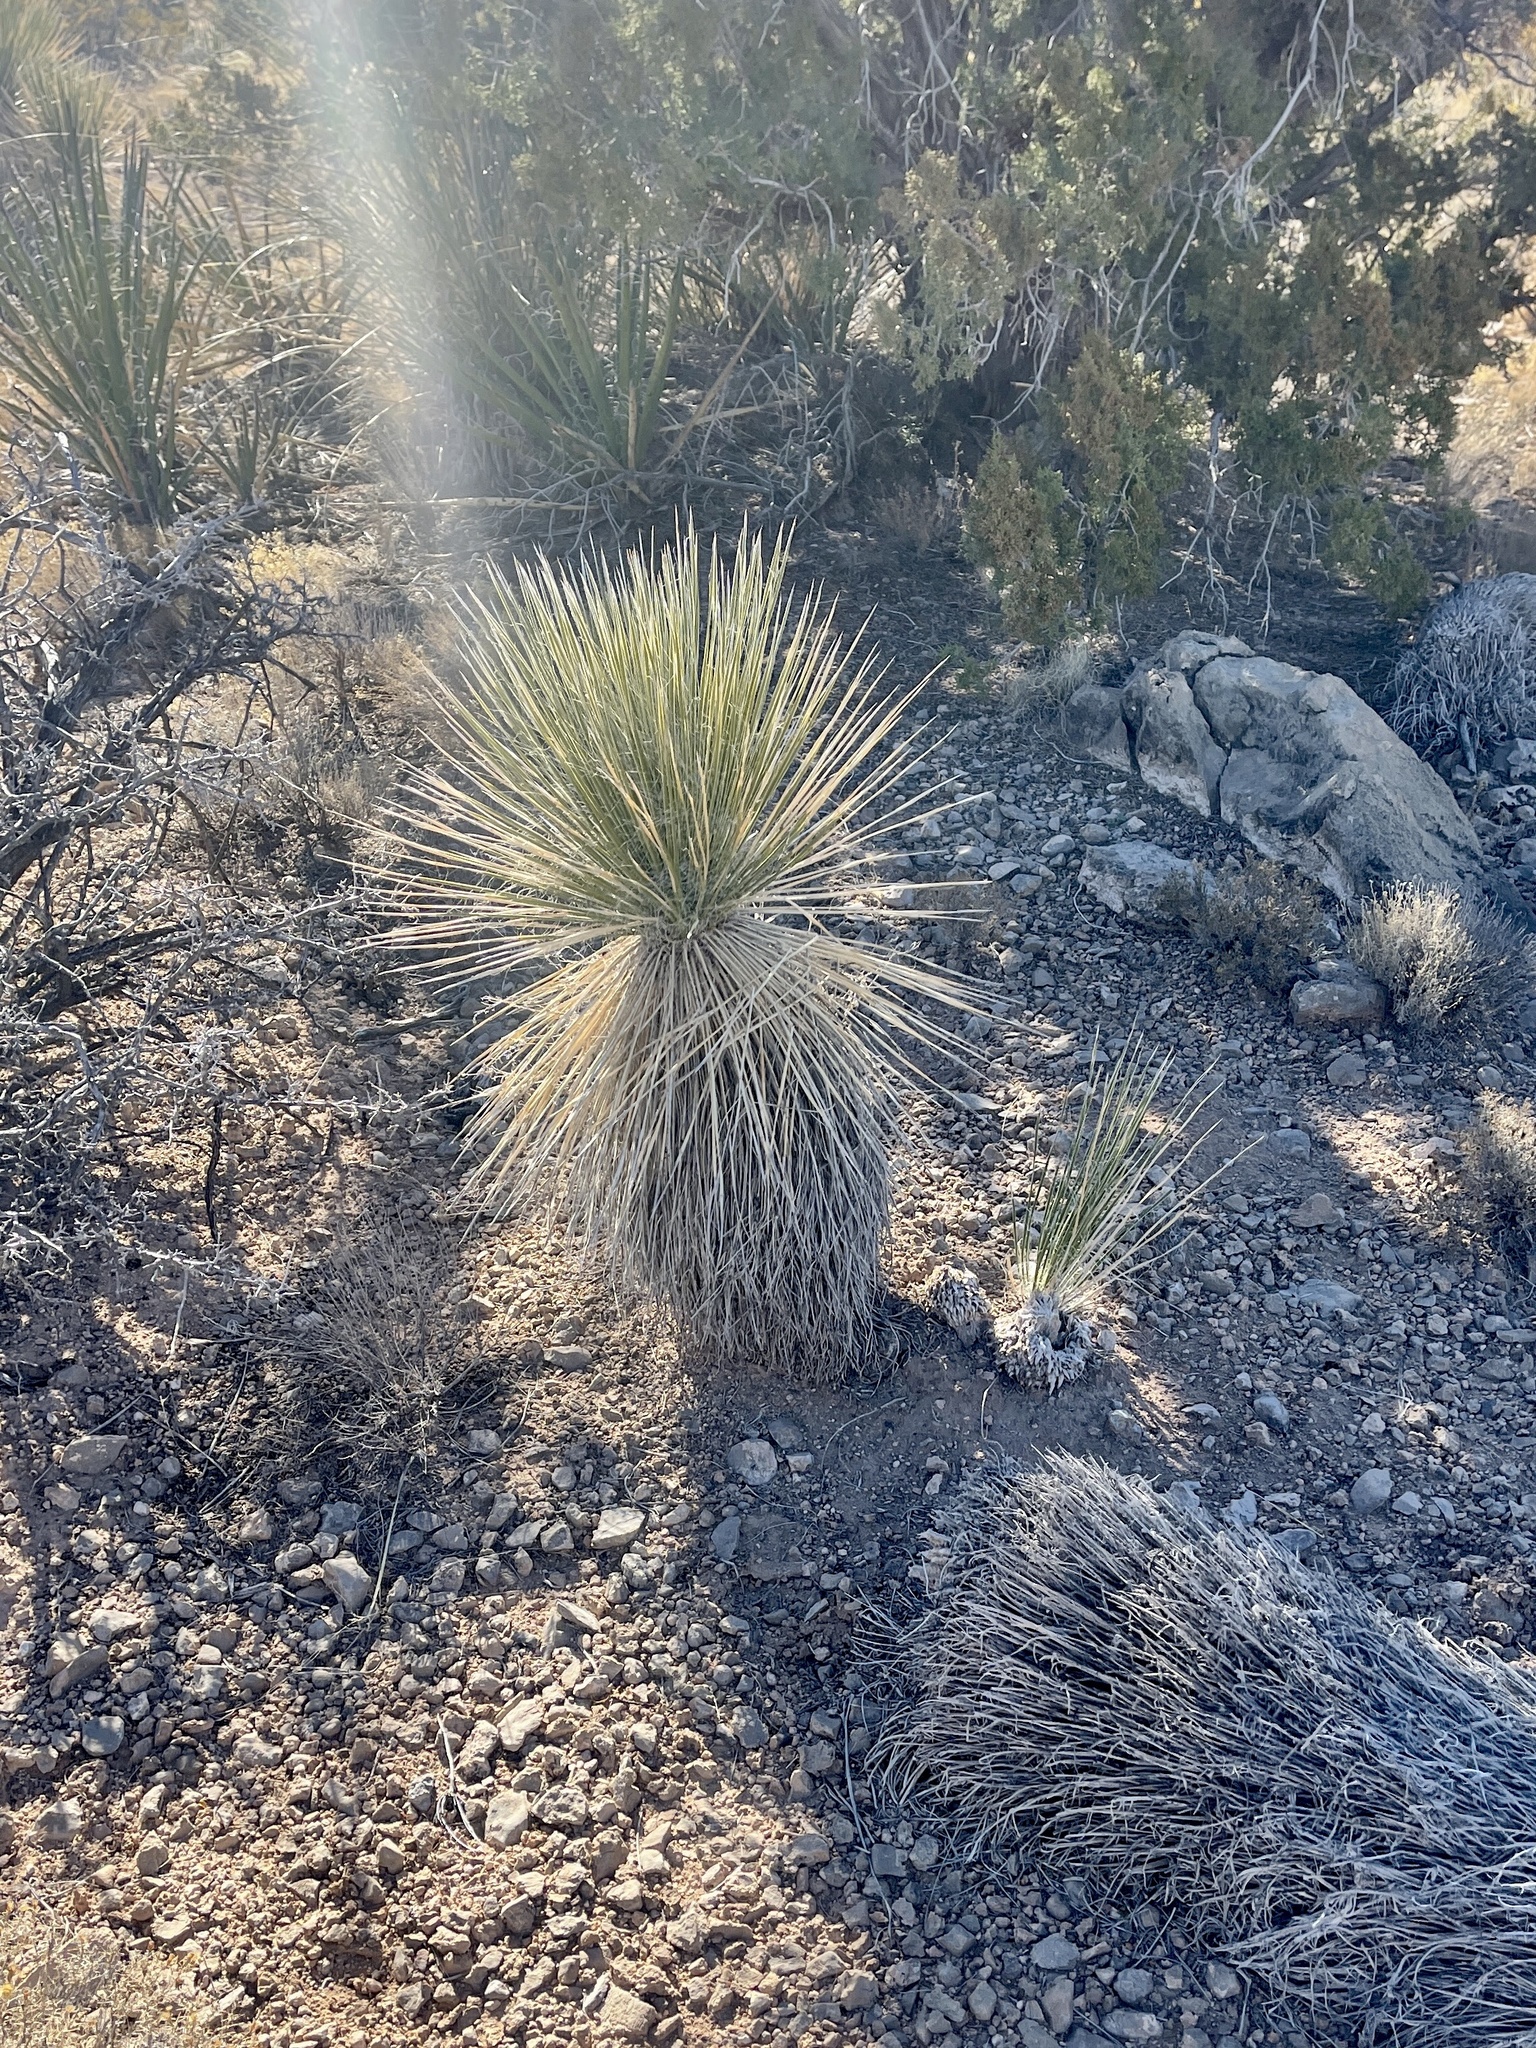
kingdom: Plantae
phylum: Tracheophyta
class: Liliopsida
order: Asparagales
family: Asparagaceae
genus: Yucca
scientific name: Yucca elata
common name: Palmella
